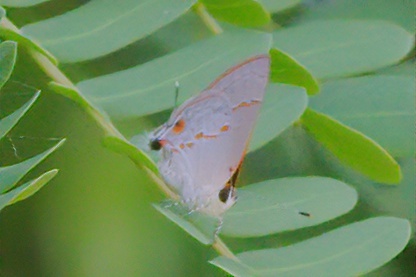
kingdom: Animalia
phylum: Arthropoda
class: Insecta
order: Lepidoptera
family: Lycaenidae
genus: Thecla
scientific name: Thecla azia
